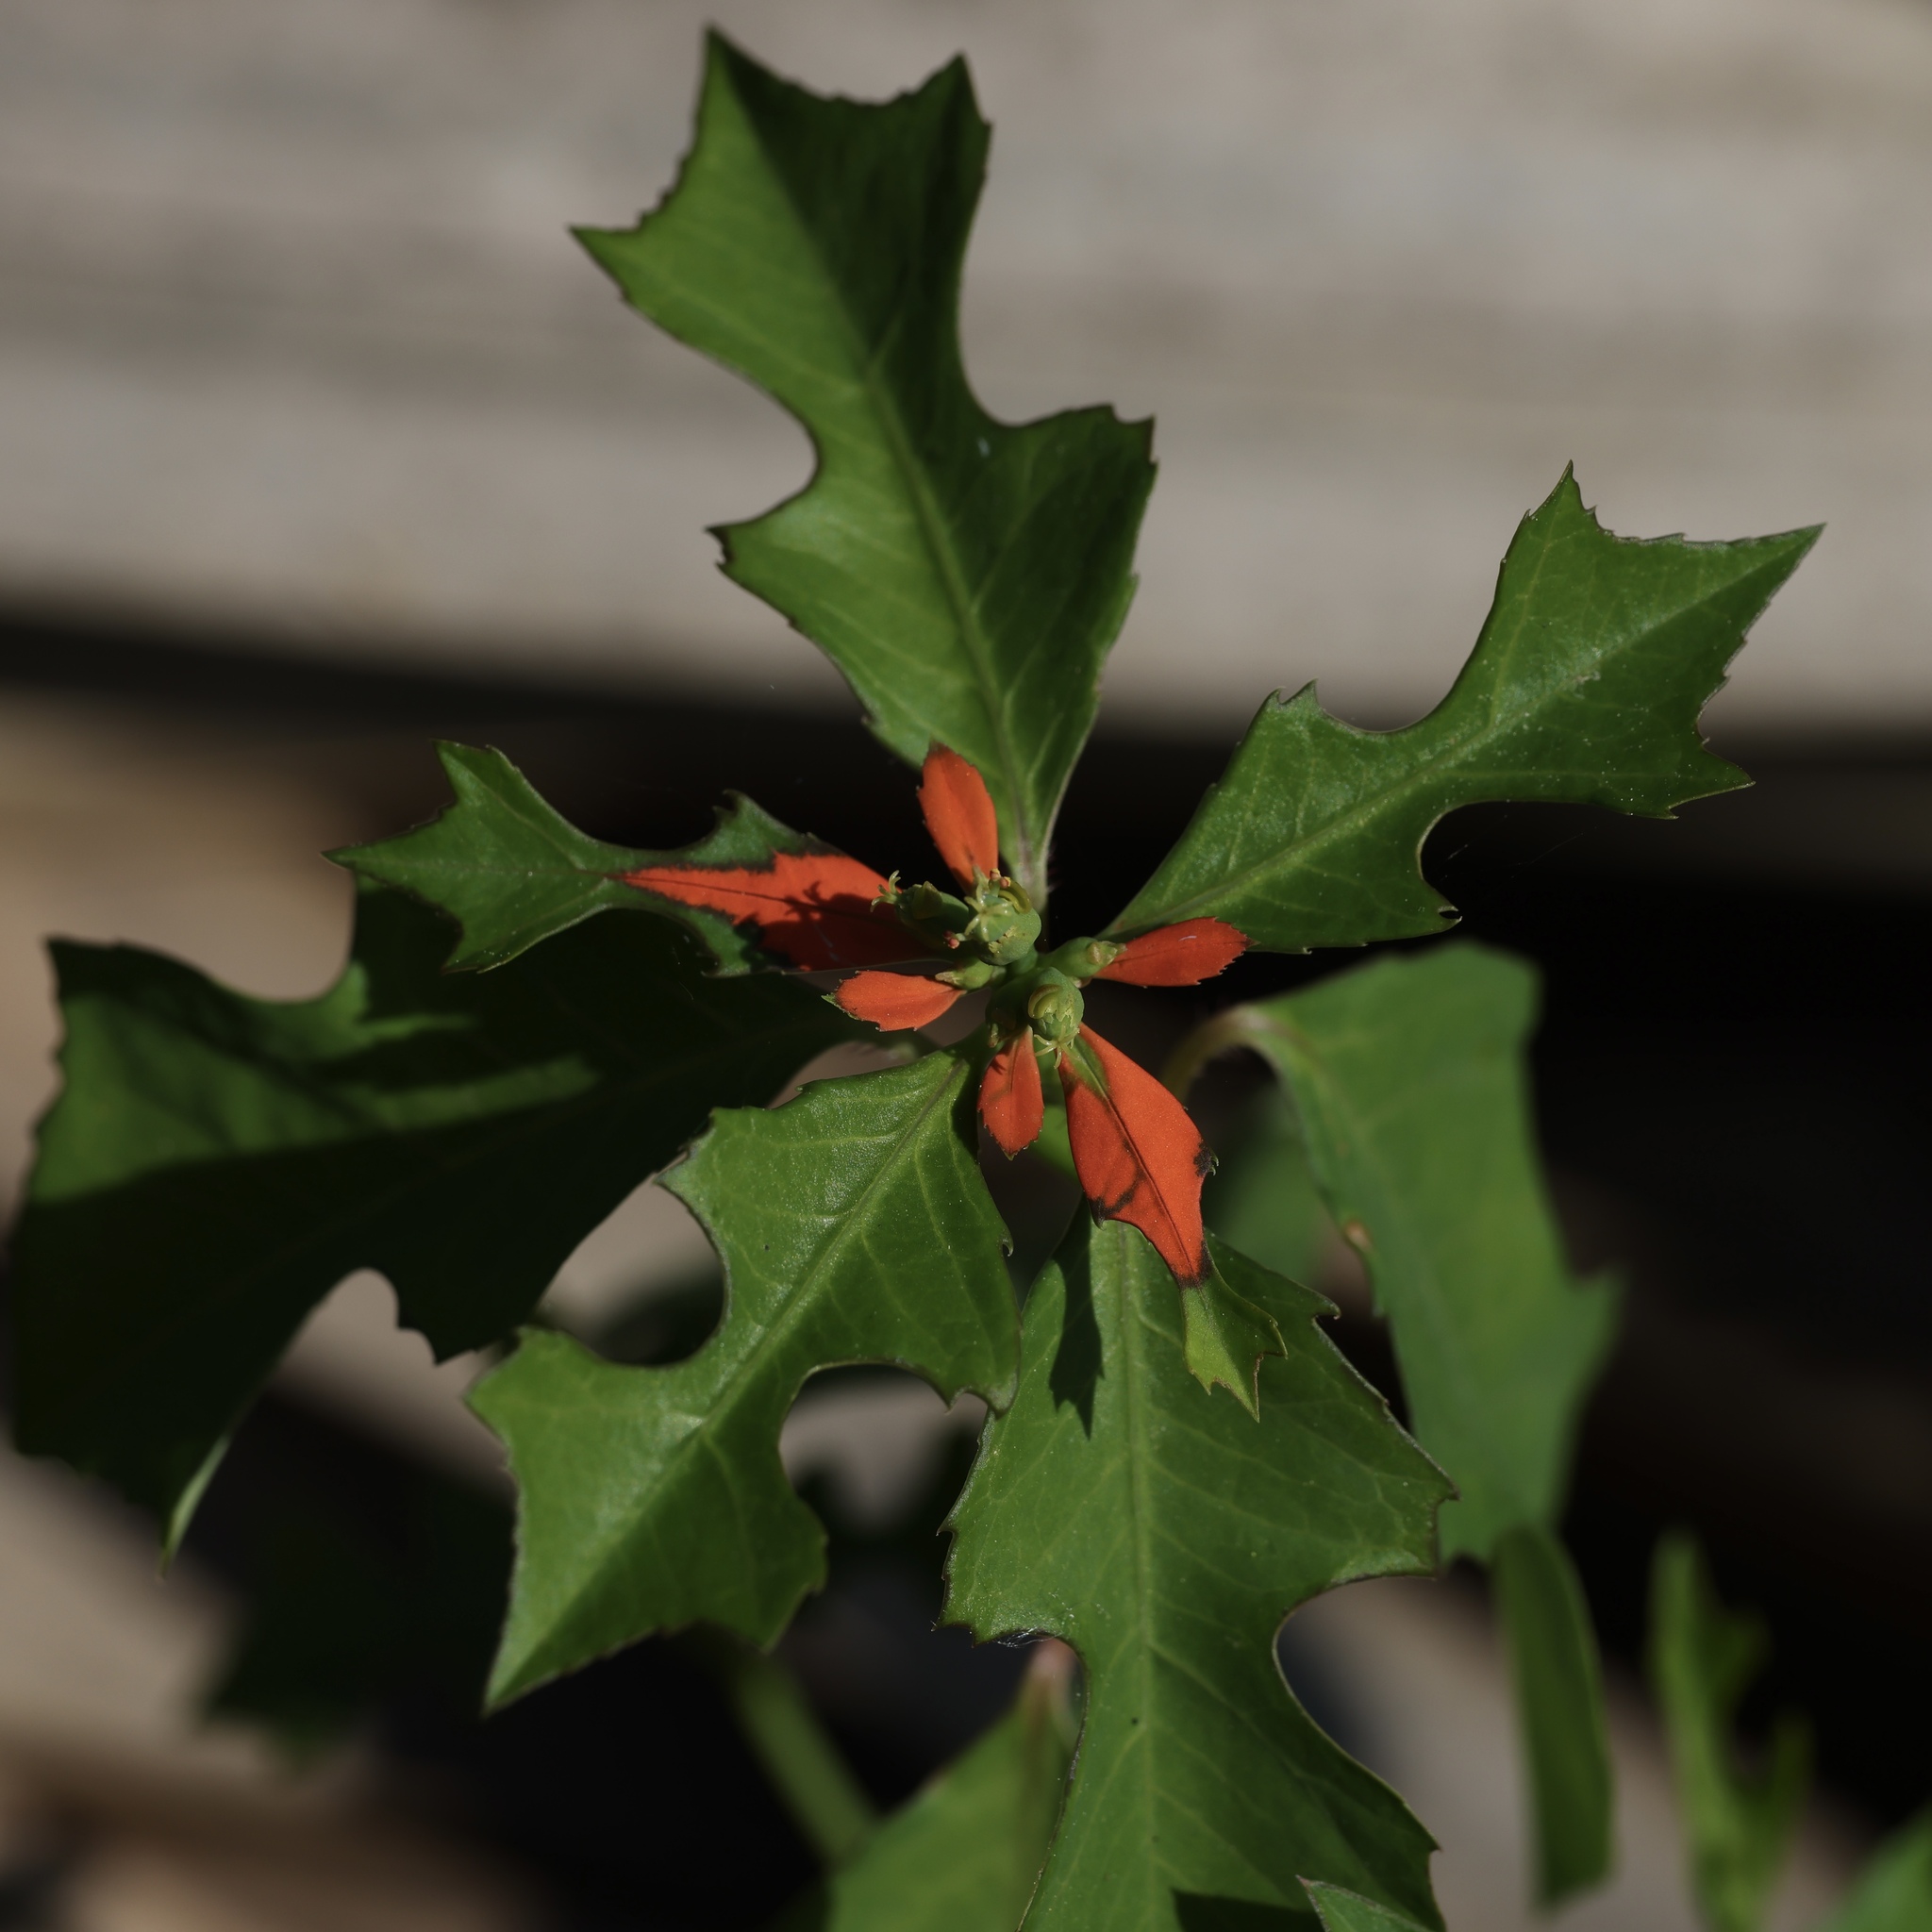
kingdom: Plantae
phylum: Tracheophyta
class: Magnoliopsida
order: Malpighiales
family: Euphorbiaceae
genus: Euphorbia
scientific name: Euphorbia heterophylla
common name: Mexican fireplant
